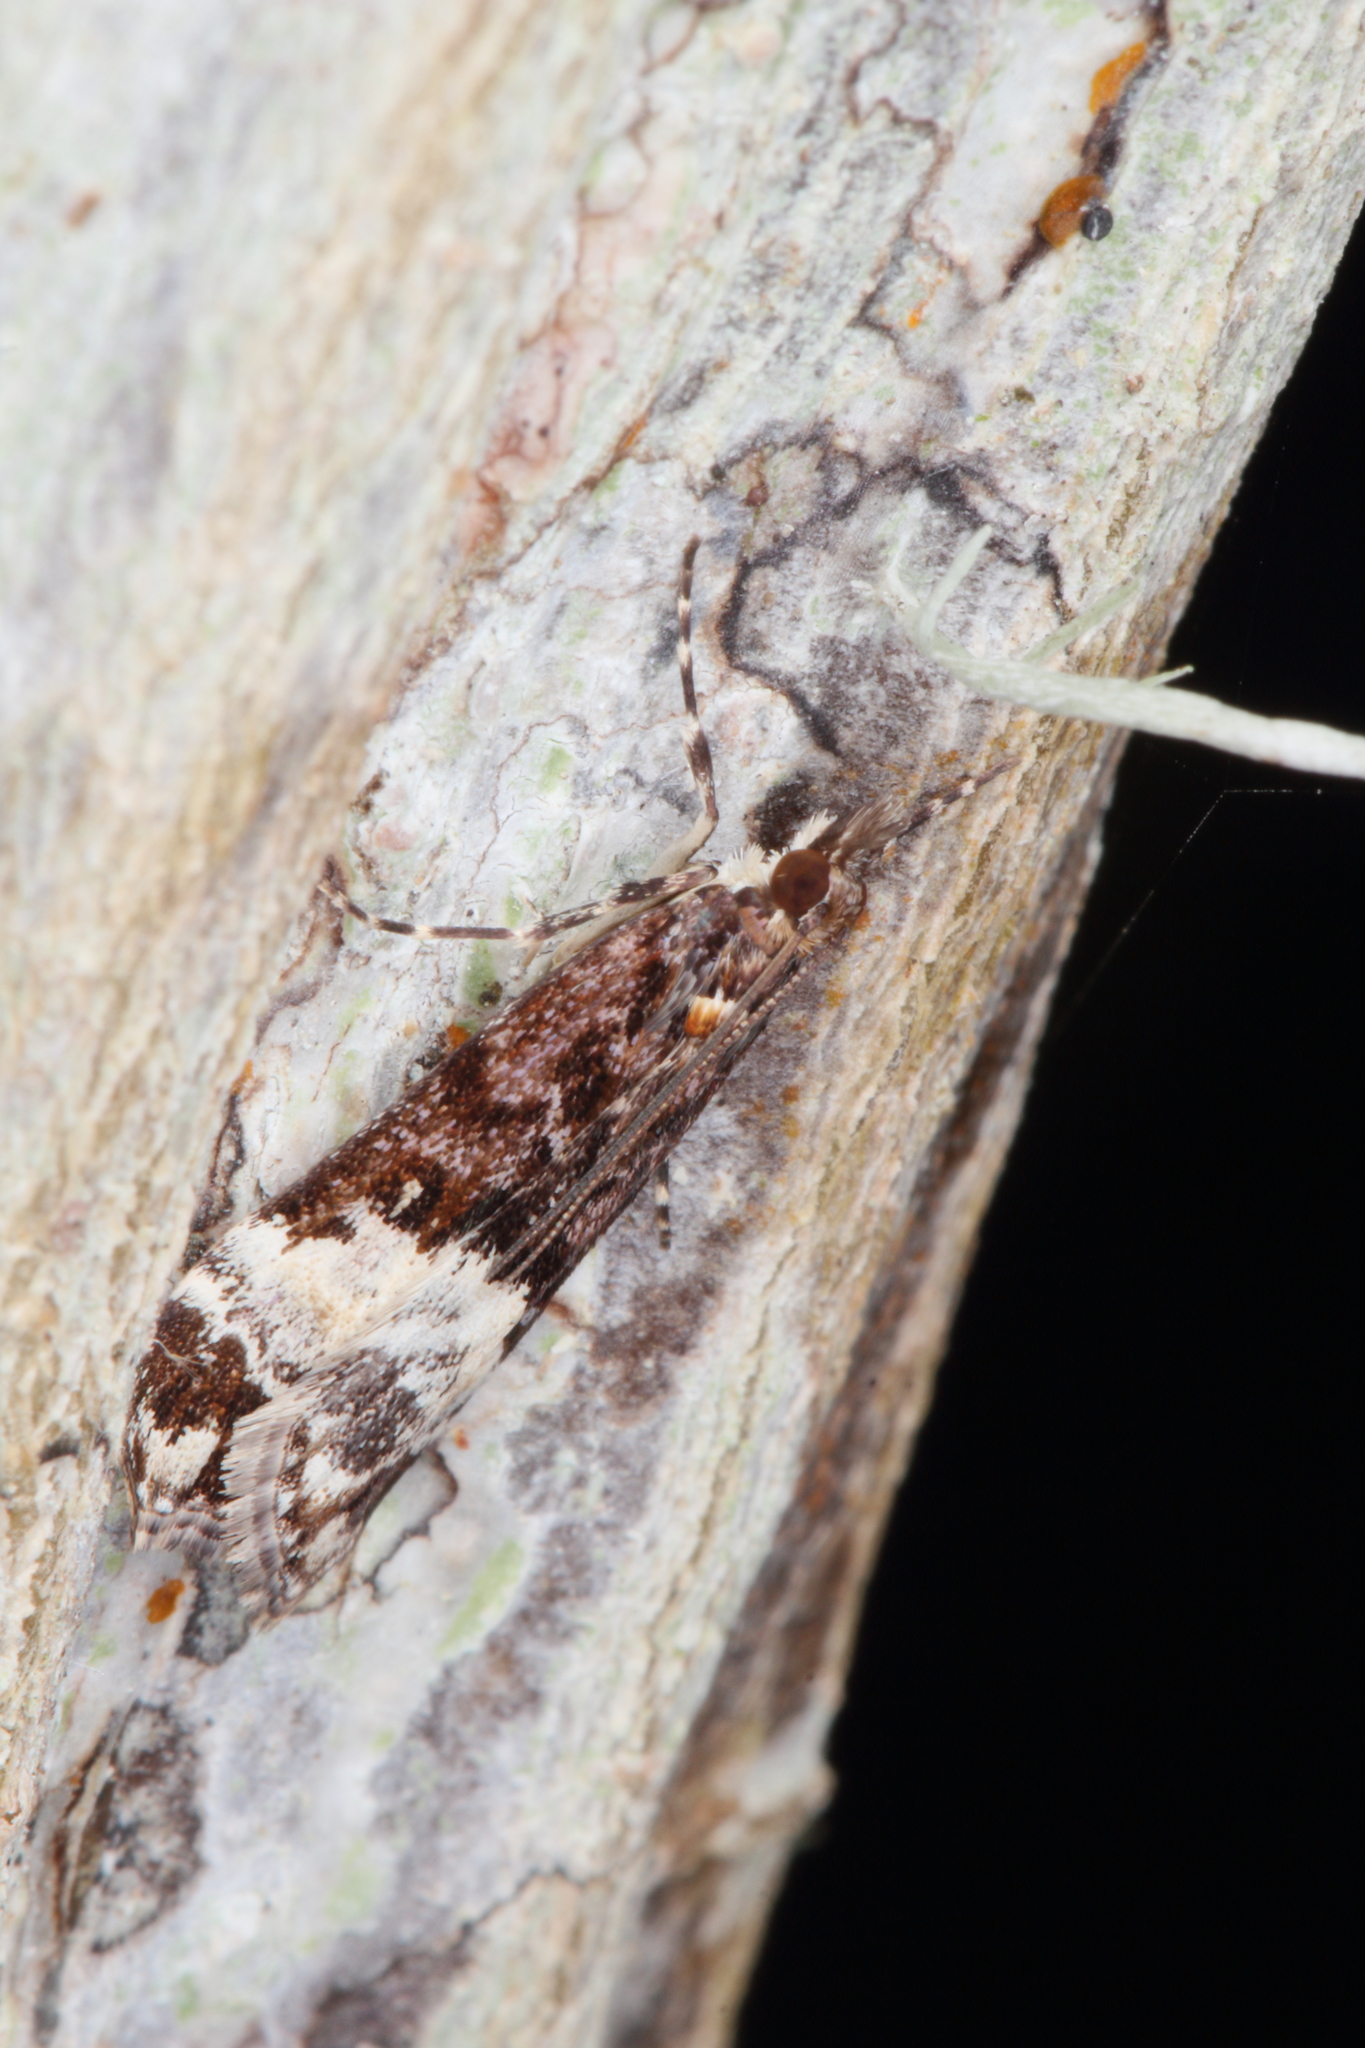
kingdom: Animalia
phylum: Arthropoda
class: Insecta
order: Lepidoptera
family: Crambidae
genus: Scoparia
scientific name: Scoparia minusculalis
